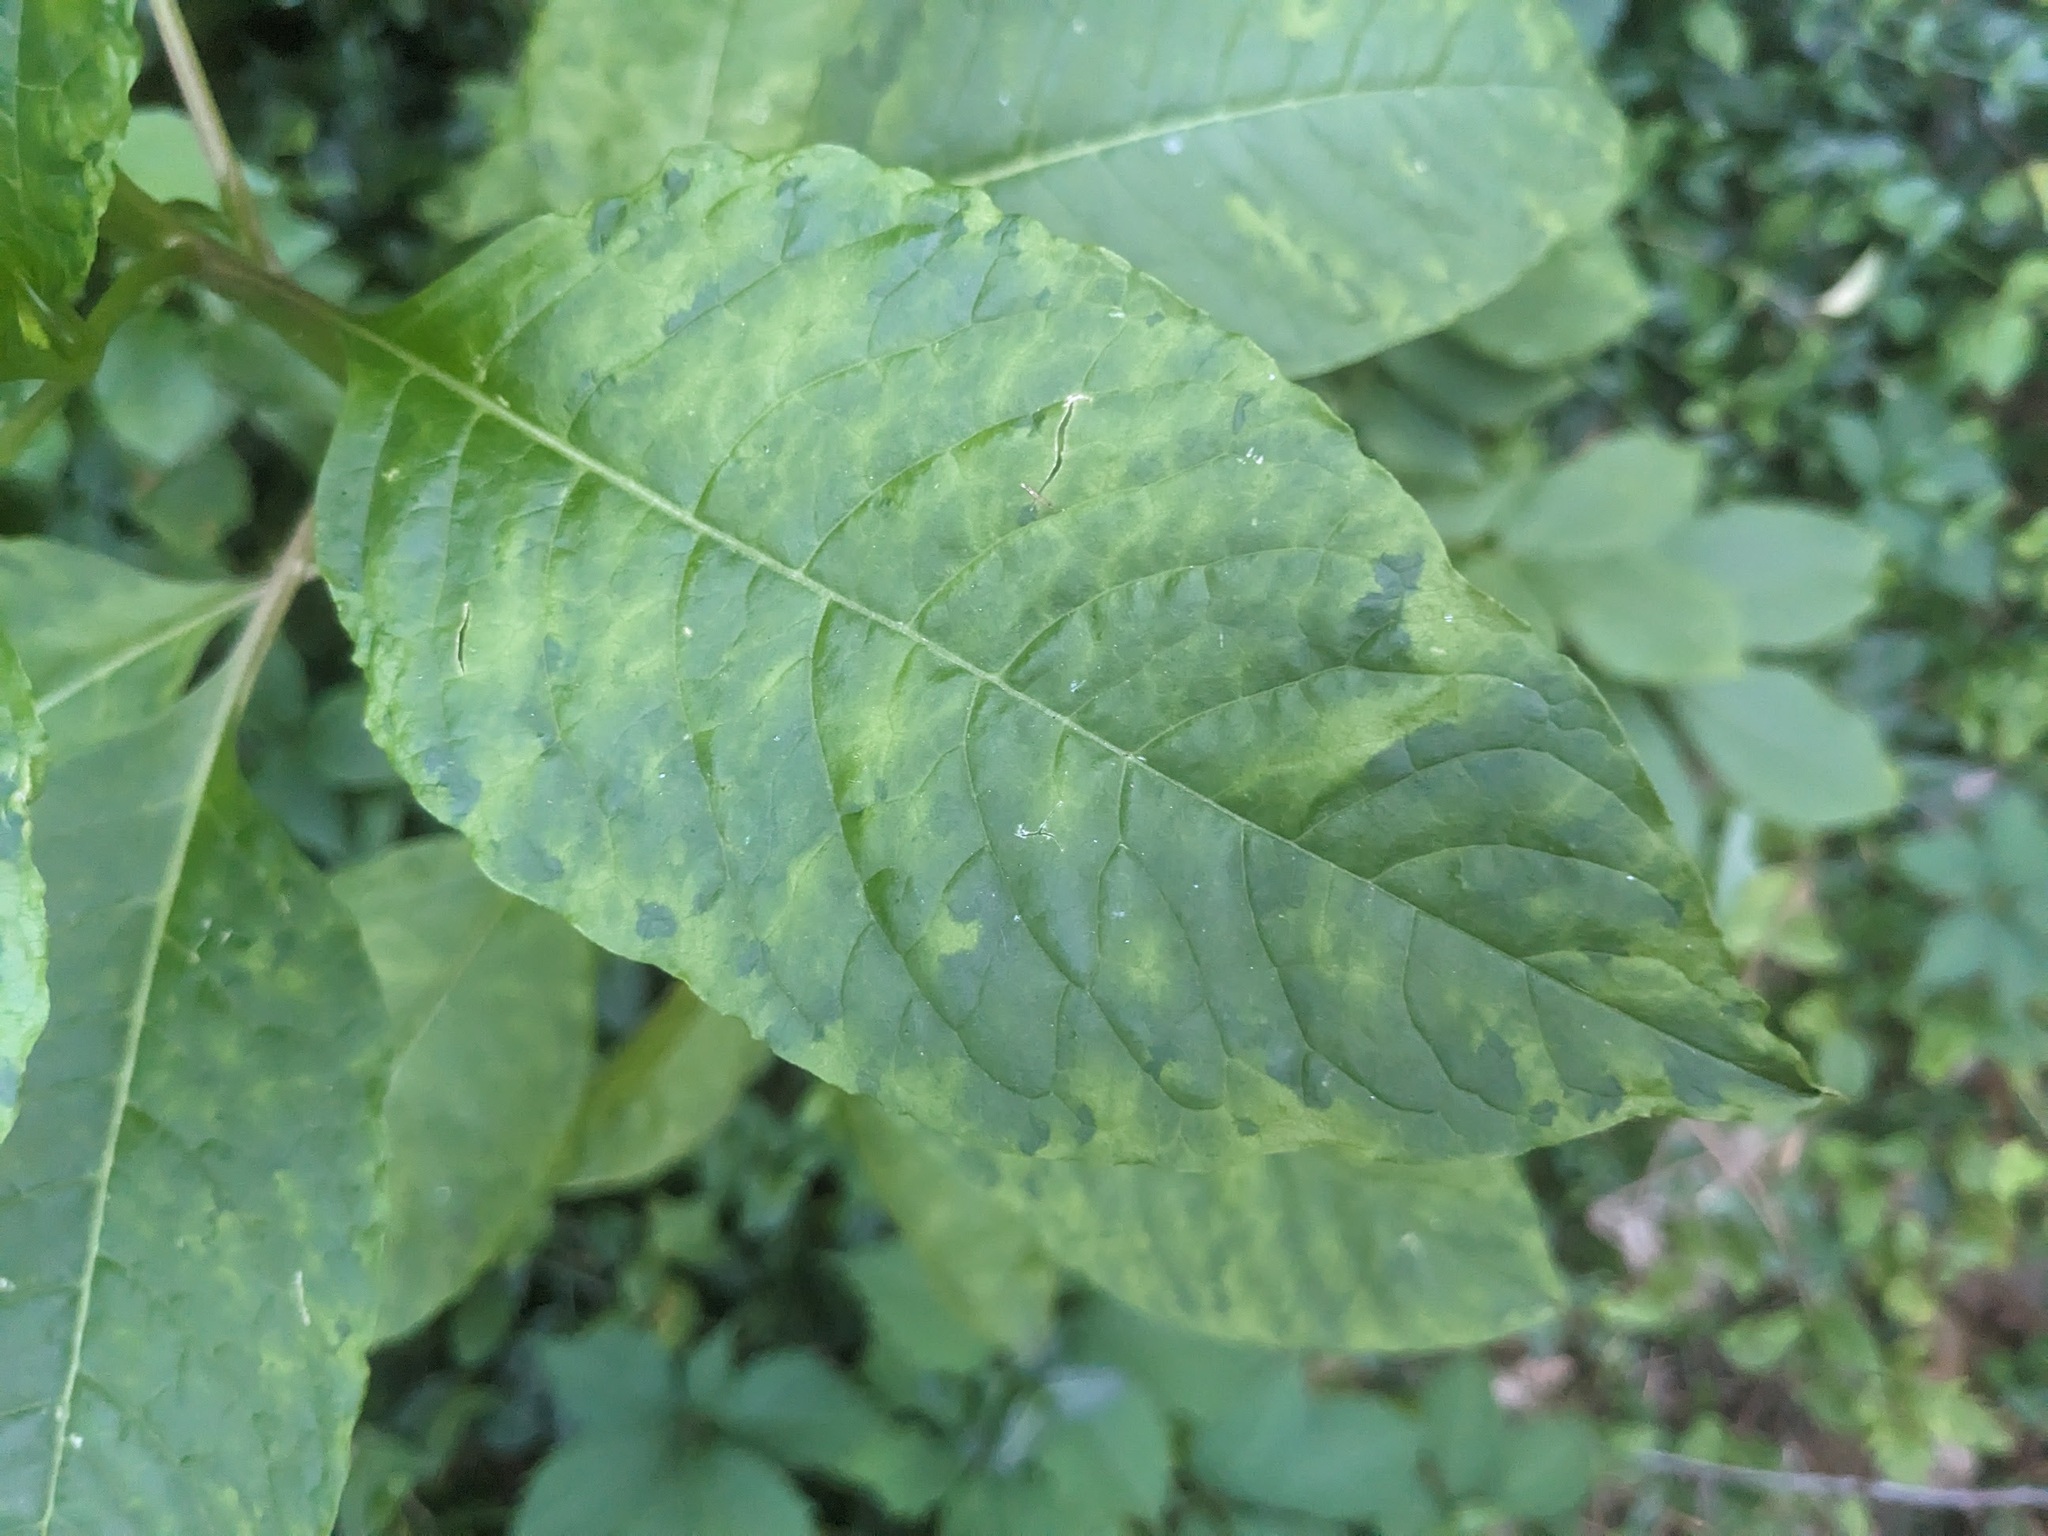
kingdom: Viruses
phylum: Pisuviricota
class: Stelpaviricetes
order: Patatavirales
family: Potyviridae
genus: Potyvirus
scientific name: Potyvirus Pokeweed mosaic virus
